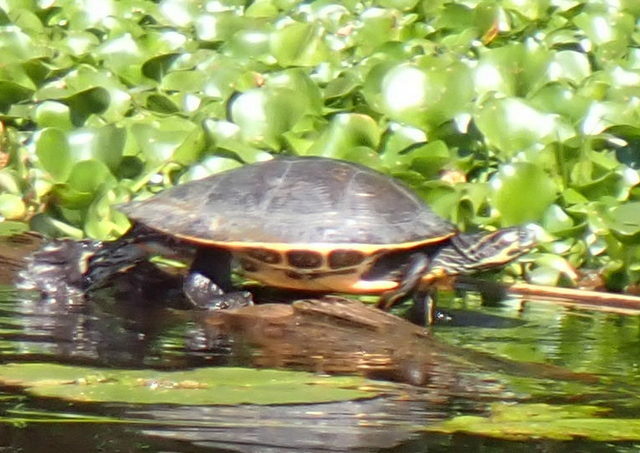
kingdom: Animalia
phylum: Chordata
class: Testudines
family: Emydidae
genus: Pseudemys
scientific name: Pseudemys concinna
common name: Eastern river cooter
